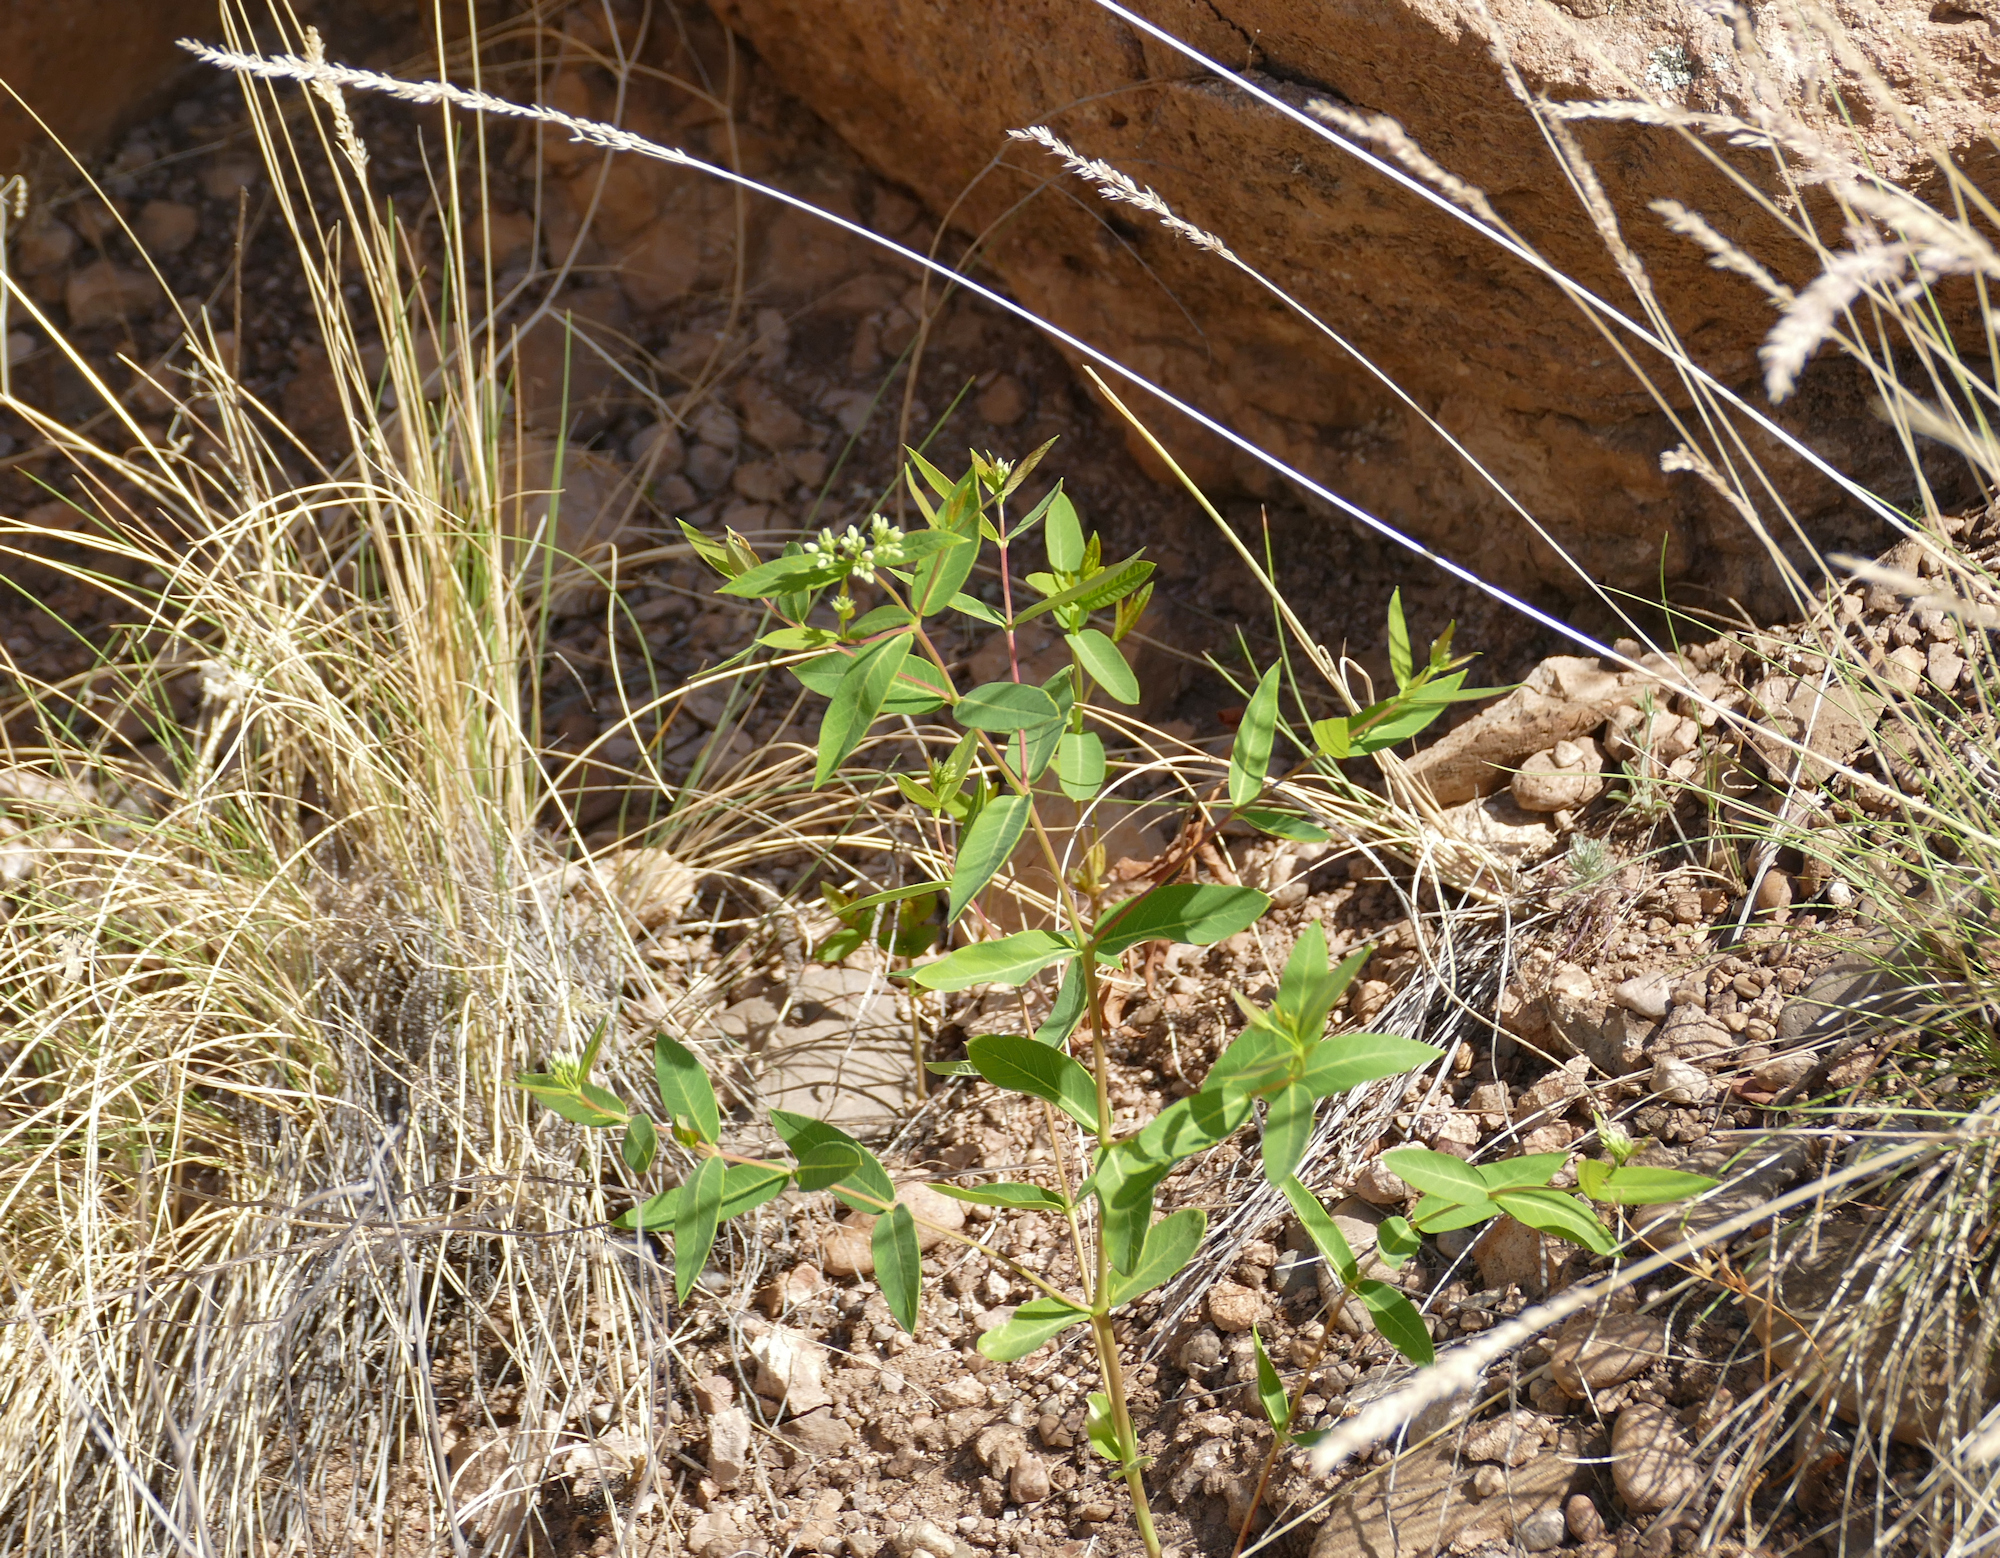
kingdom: Plantae
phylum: Tracheophyta
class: Magnoliopsida
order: Gentianales
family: Apocynaceae
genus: Apocynum
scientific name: Apocynum cannabinum
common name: Hemp dogbane
